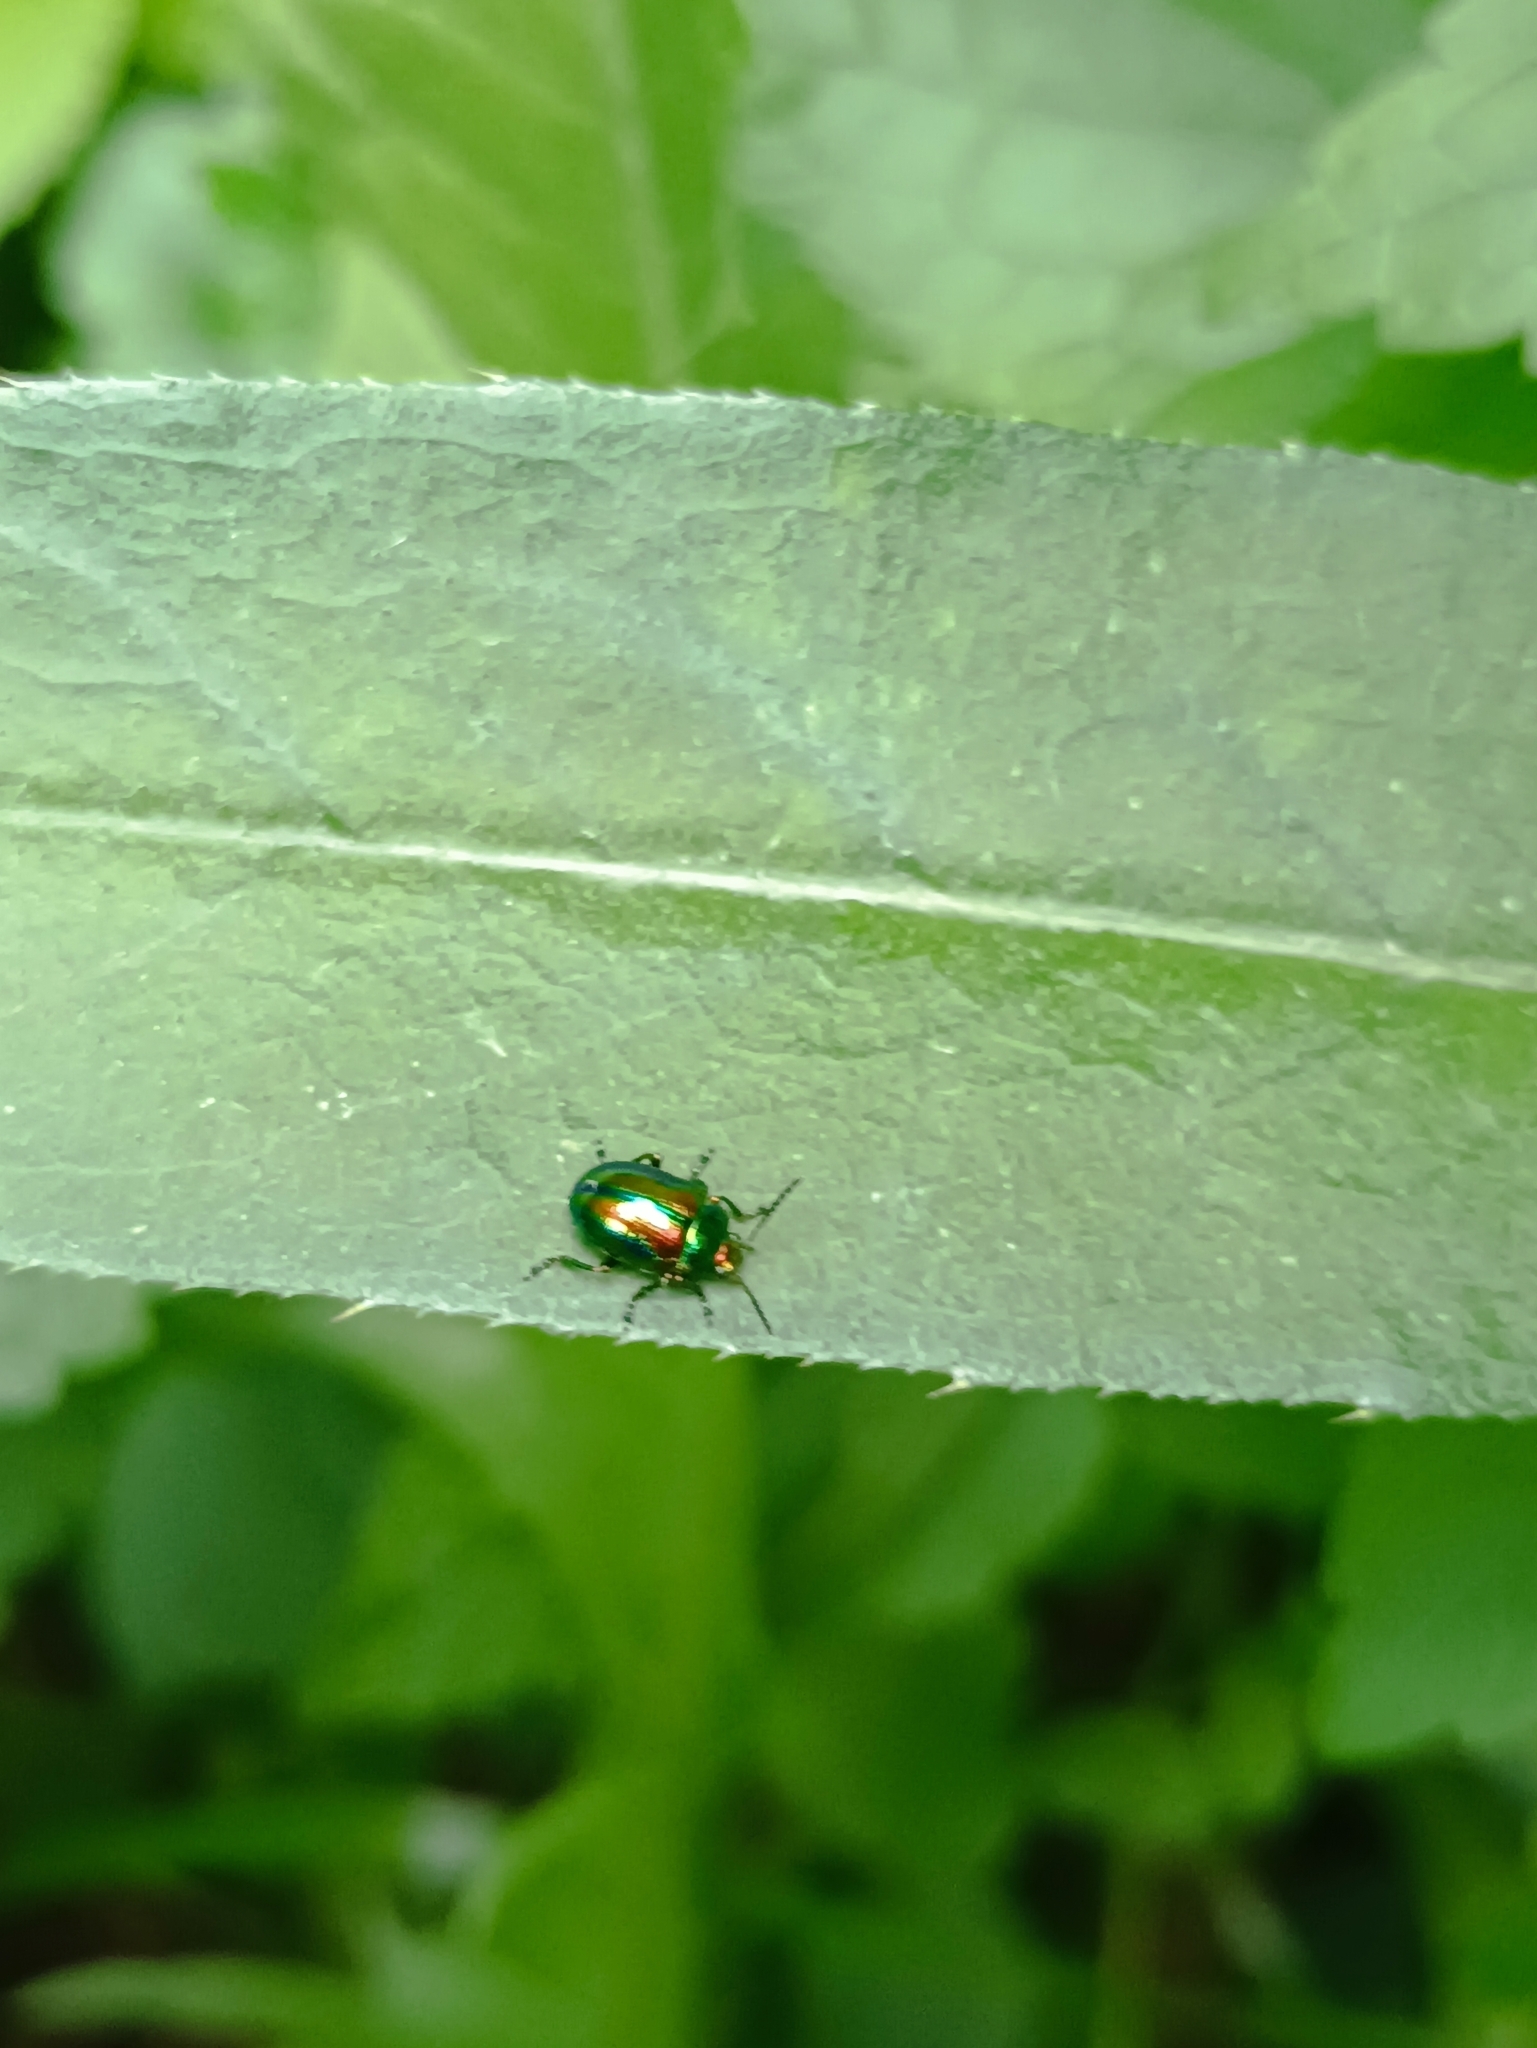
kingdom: Animalia
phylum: Arthropoda
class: Insecta
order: Coleoptera
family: Chrysomelidae
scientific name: Chrysomelidae
